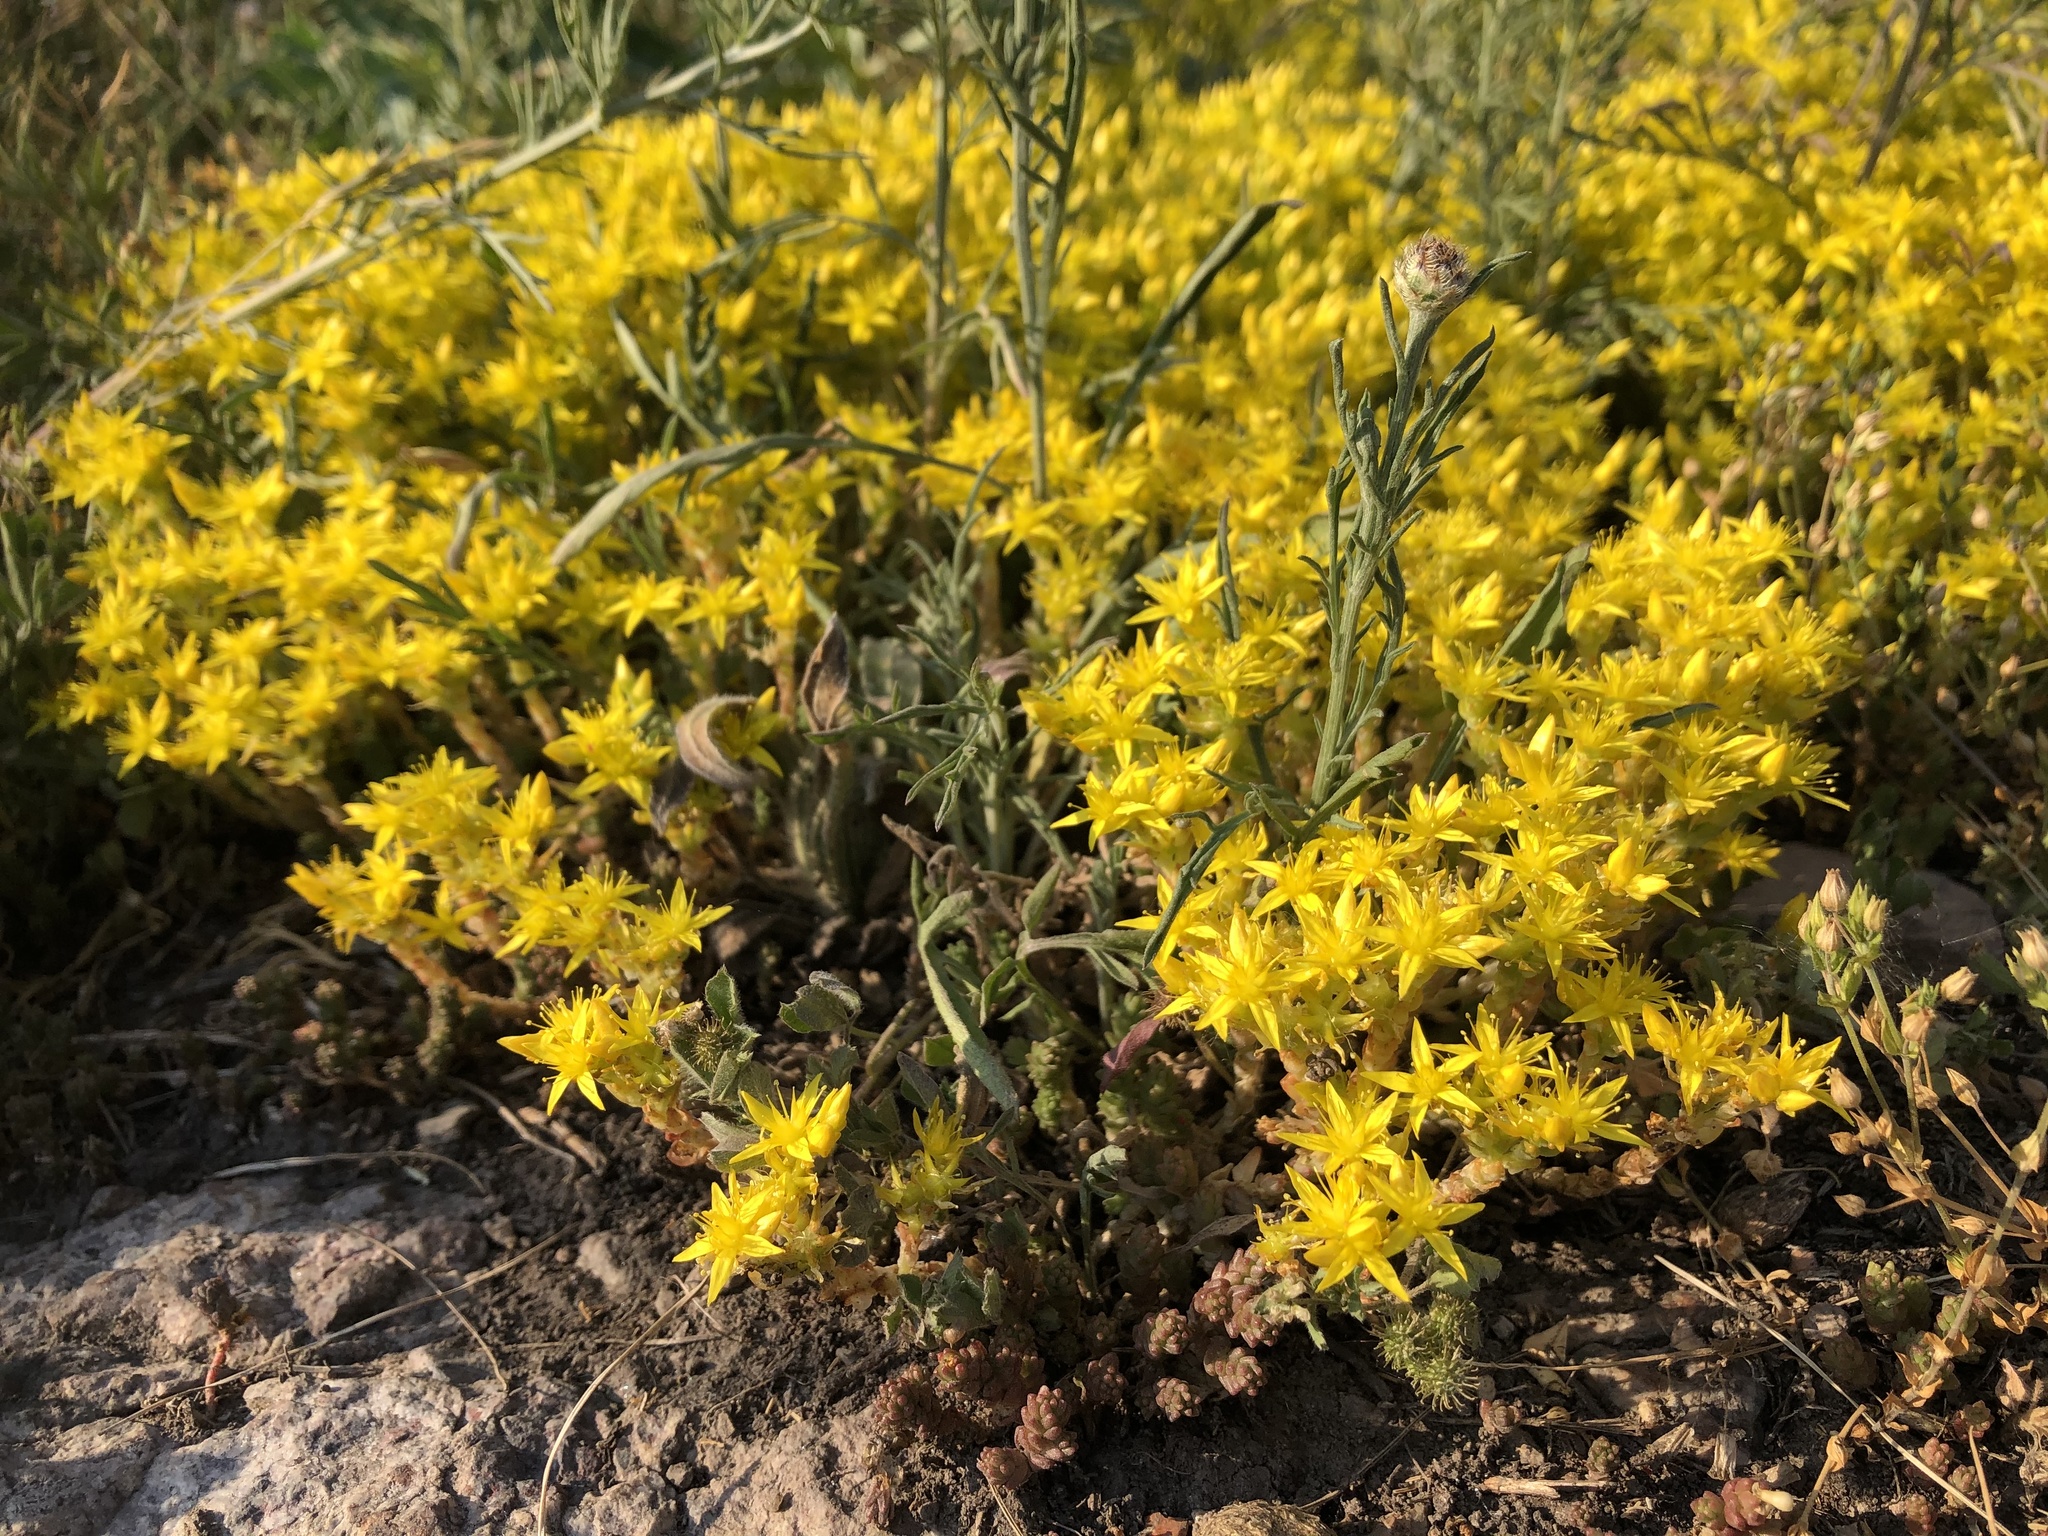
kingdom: Plantae
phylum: Tracheophyta
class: Magnoliopsida
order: Saxifragales
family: Crassulaceae
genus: Sedum
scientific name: Sedum acre
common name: Biting stonecrop
